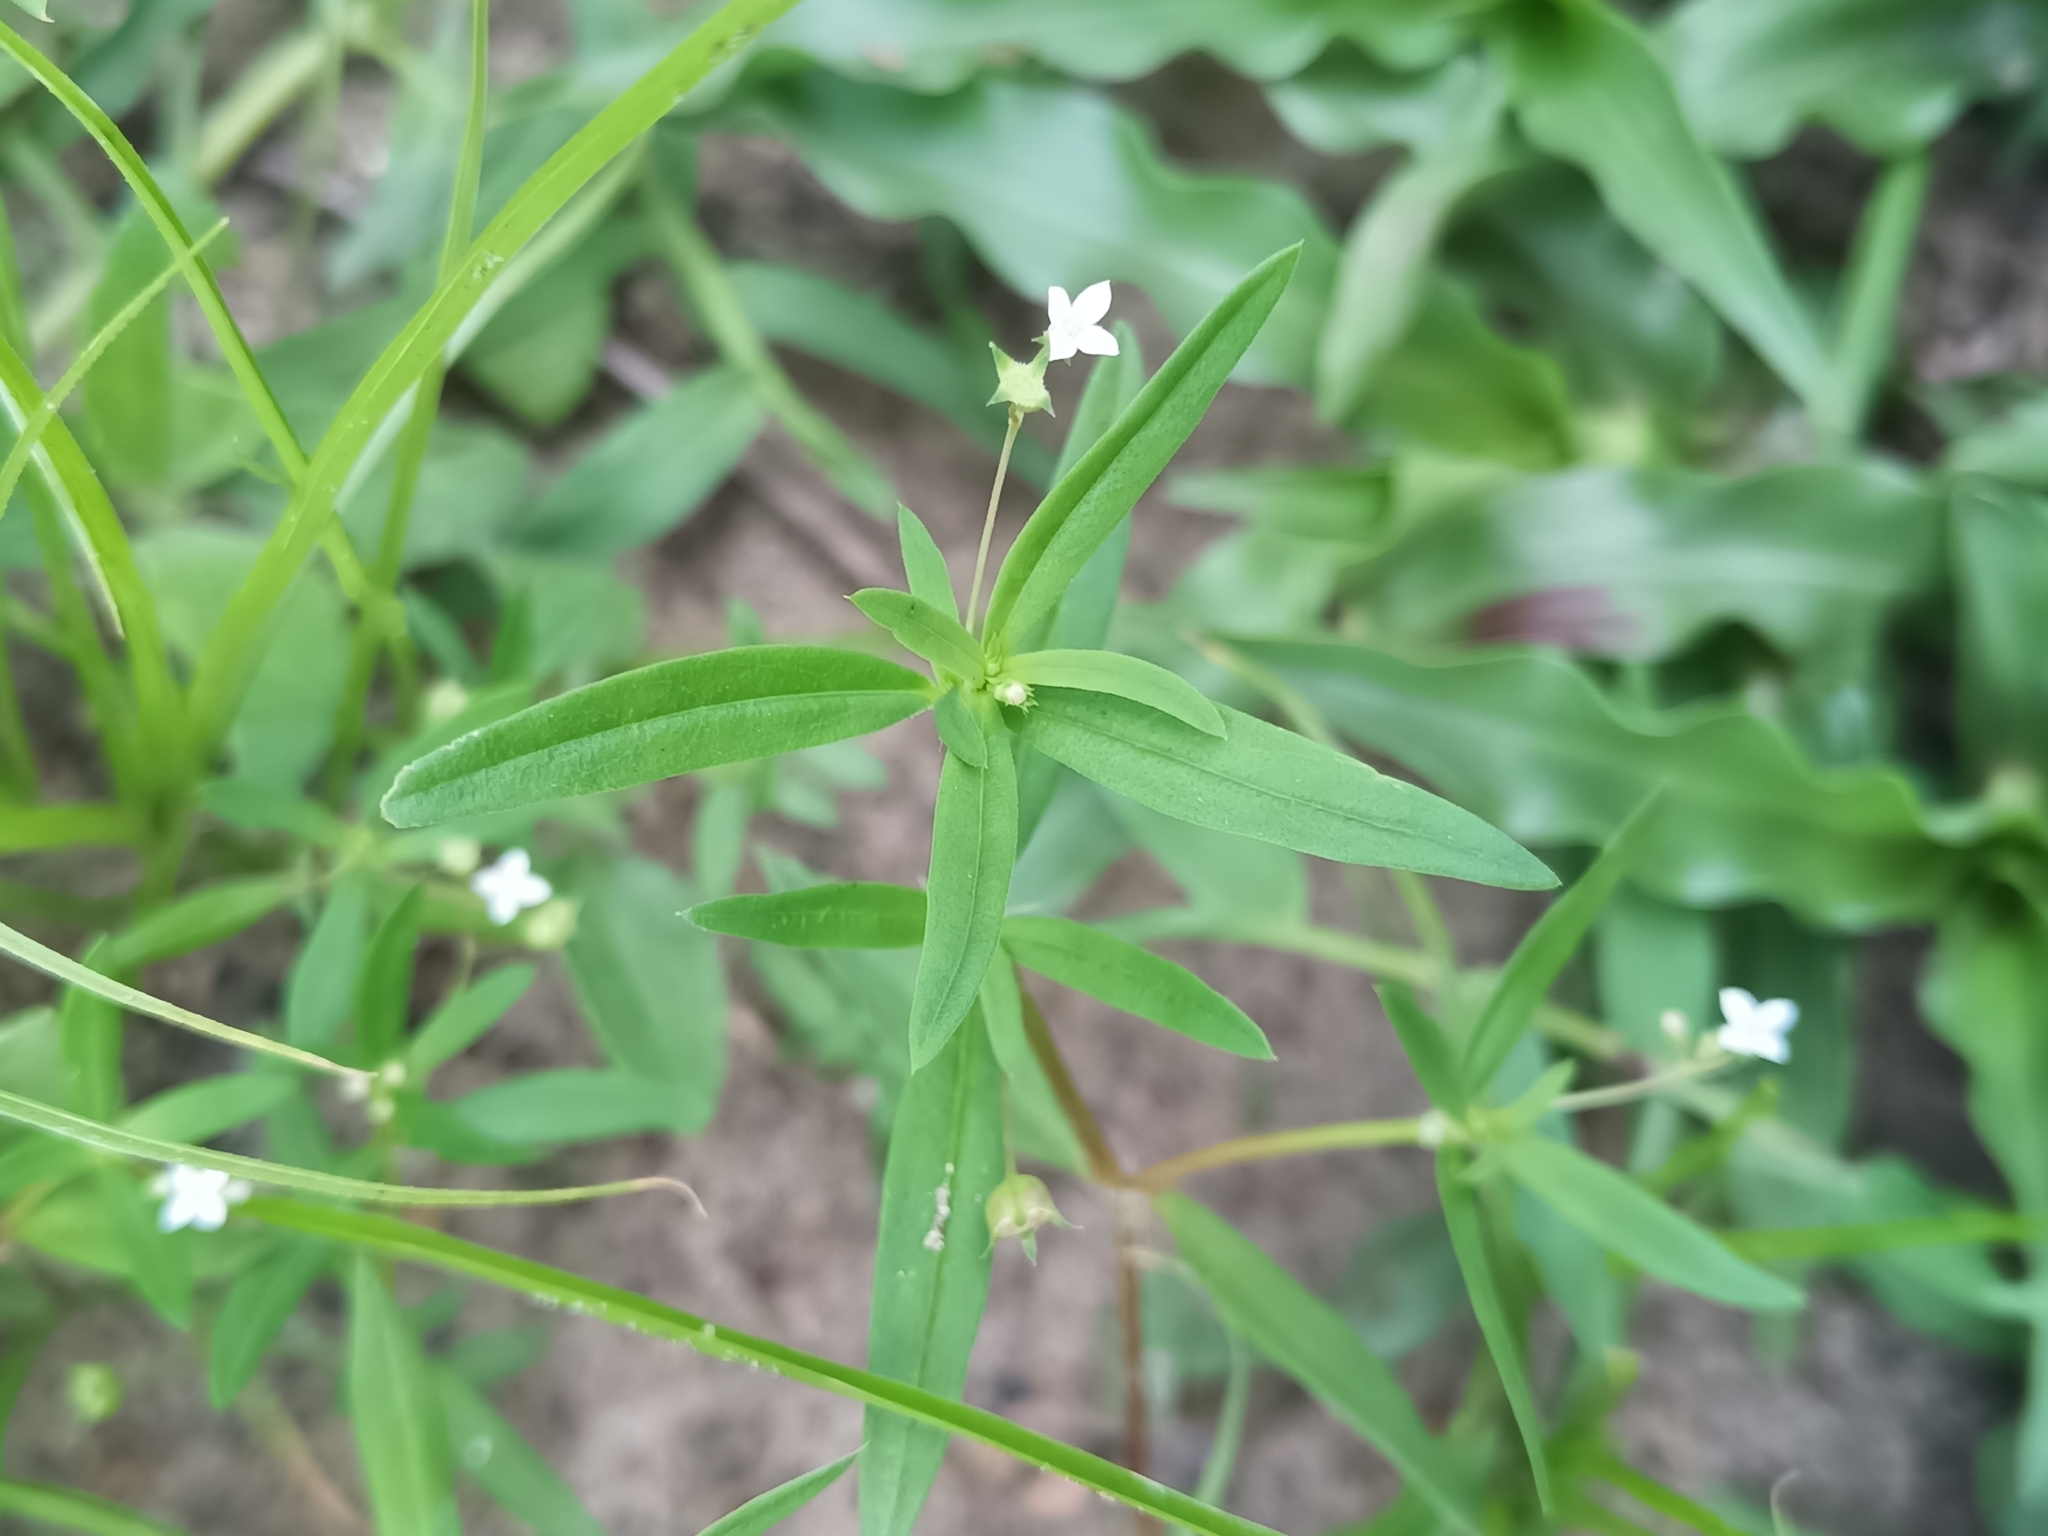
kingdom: Plantae
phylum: Tracheophyta
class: Magnoliopsida
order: Gentianales
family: Rubiaceae
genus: Oldenlandia
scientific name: Oldenlandia corymbosa
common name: Flat-top mille graines
